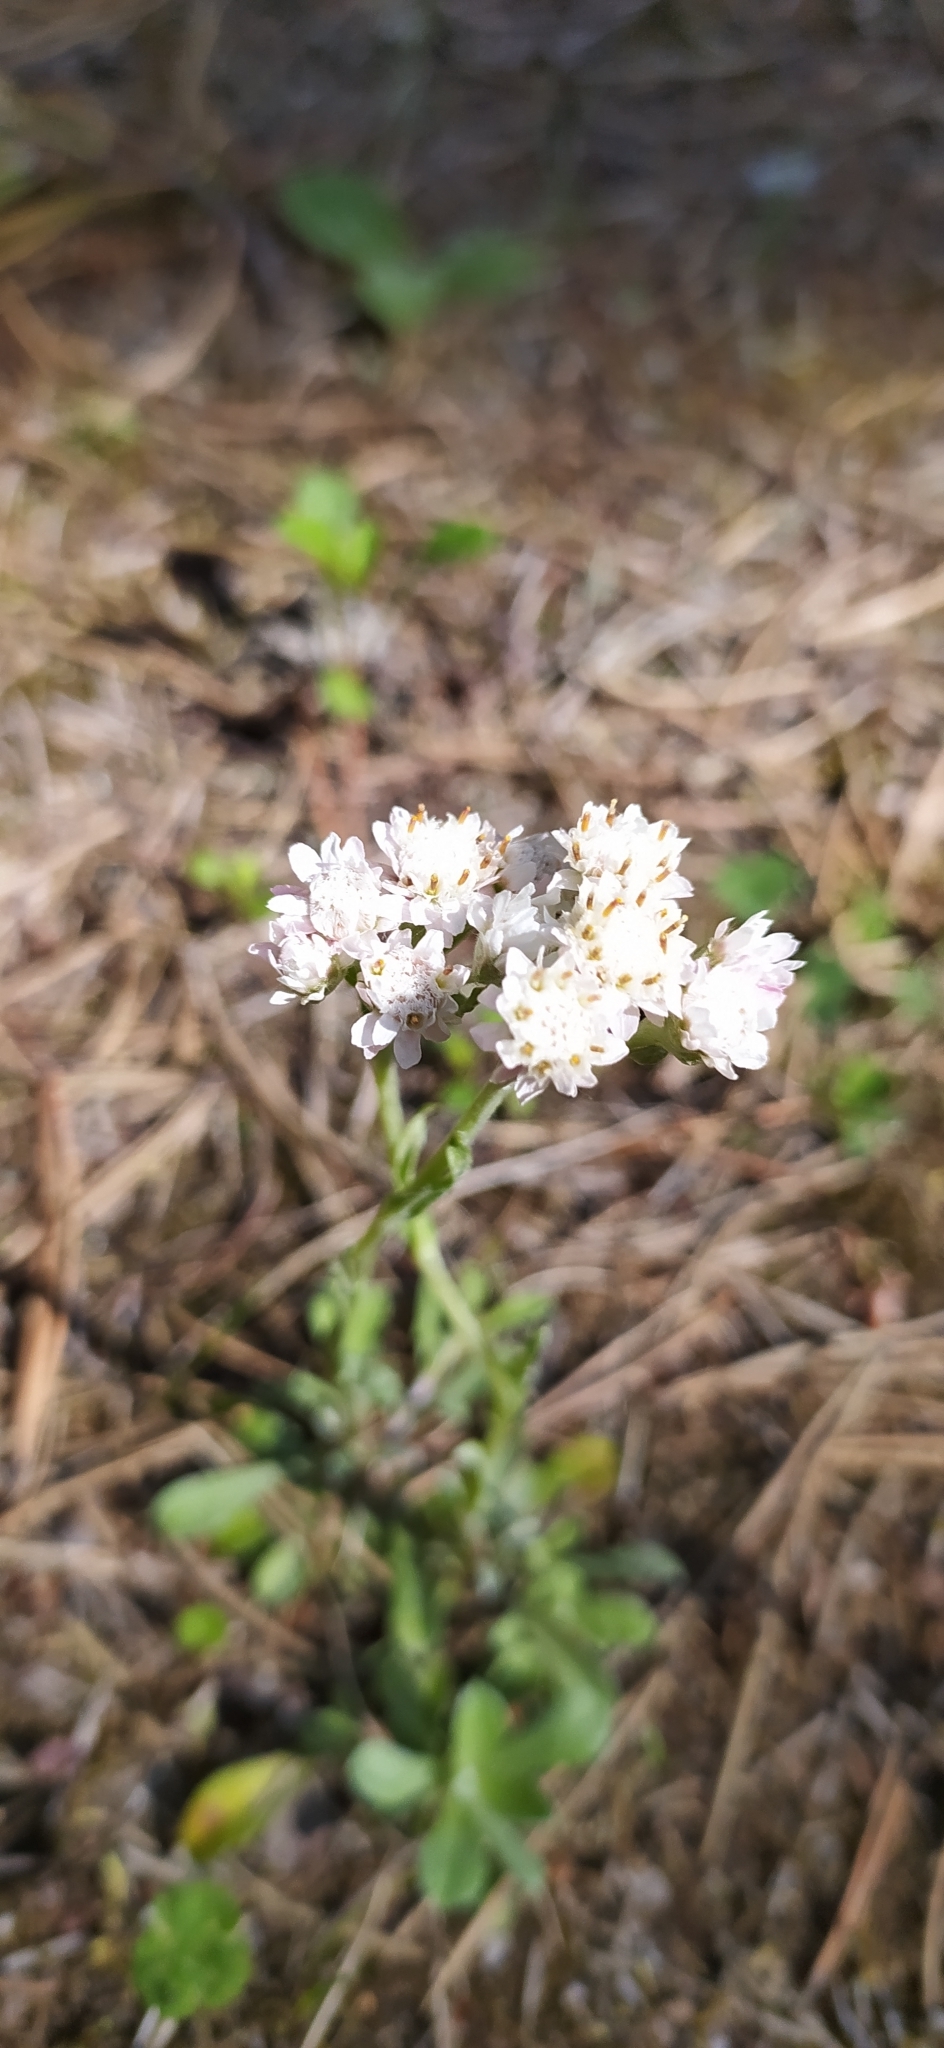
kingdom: Plantae
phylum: Tracheophyta
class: Magnoliopsida
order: Asterales
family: Asteraceae
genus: Antennaria
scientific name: Antennaria dioica
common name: Mountain everlasting
